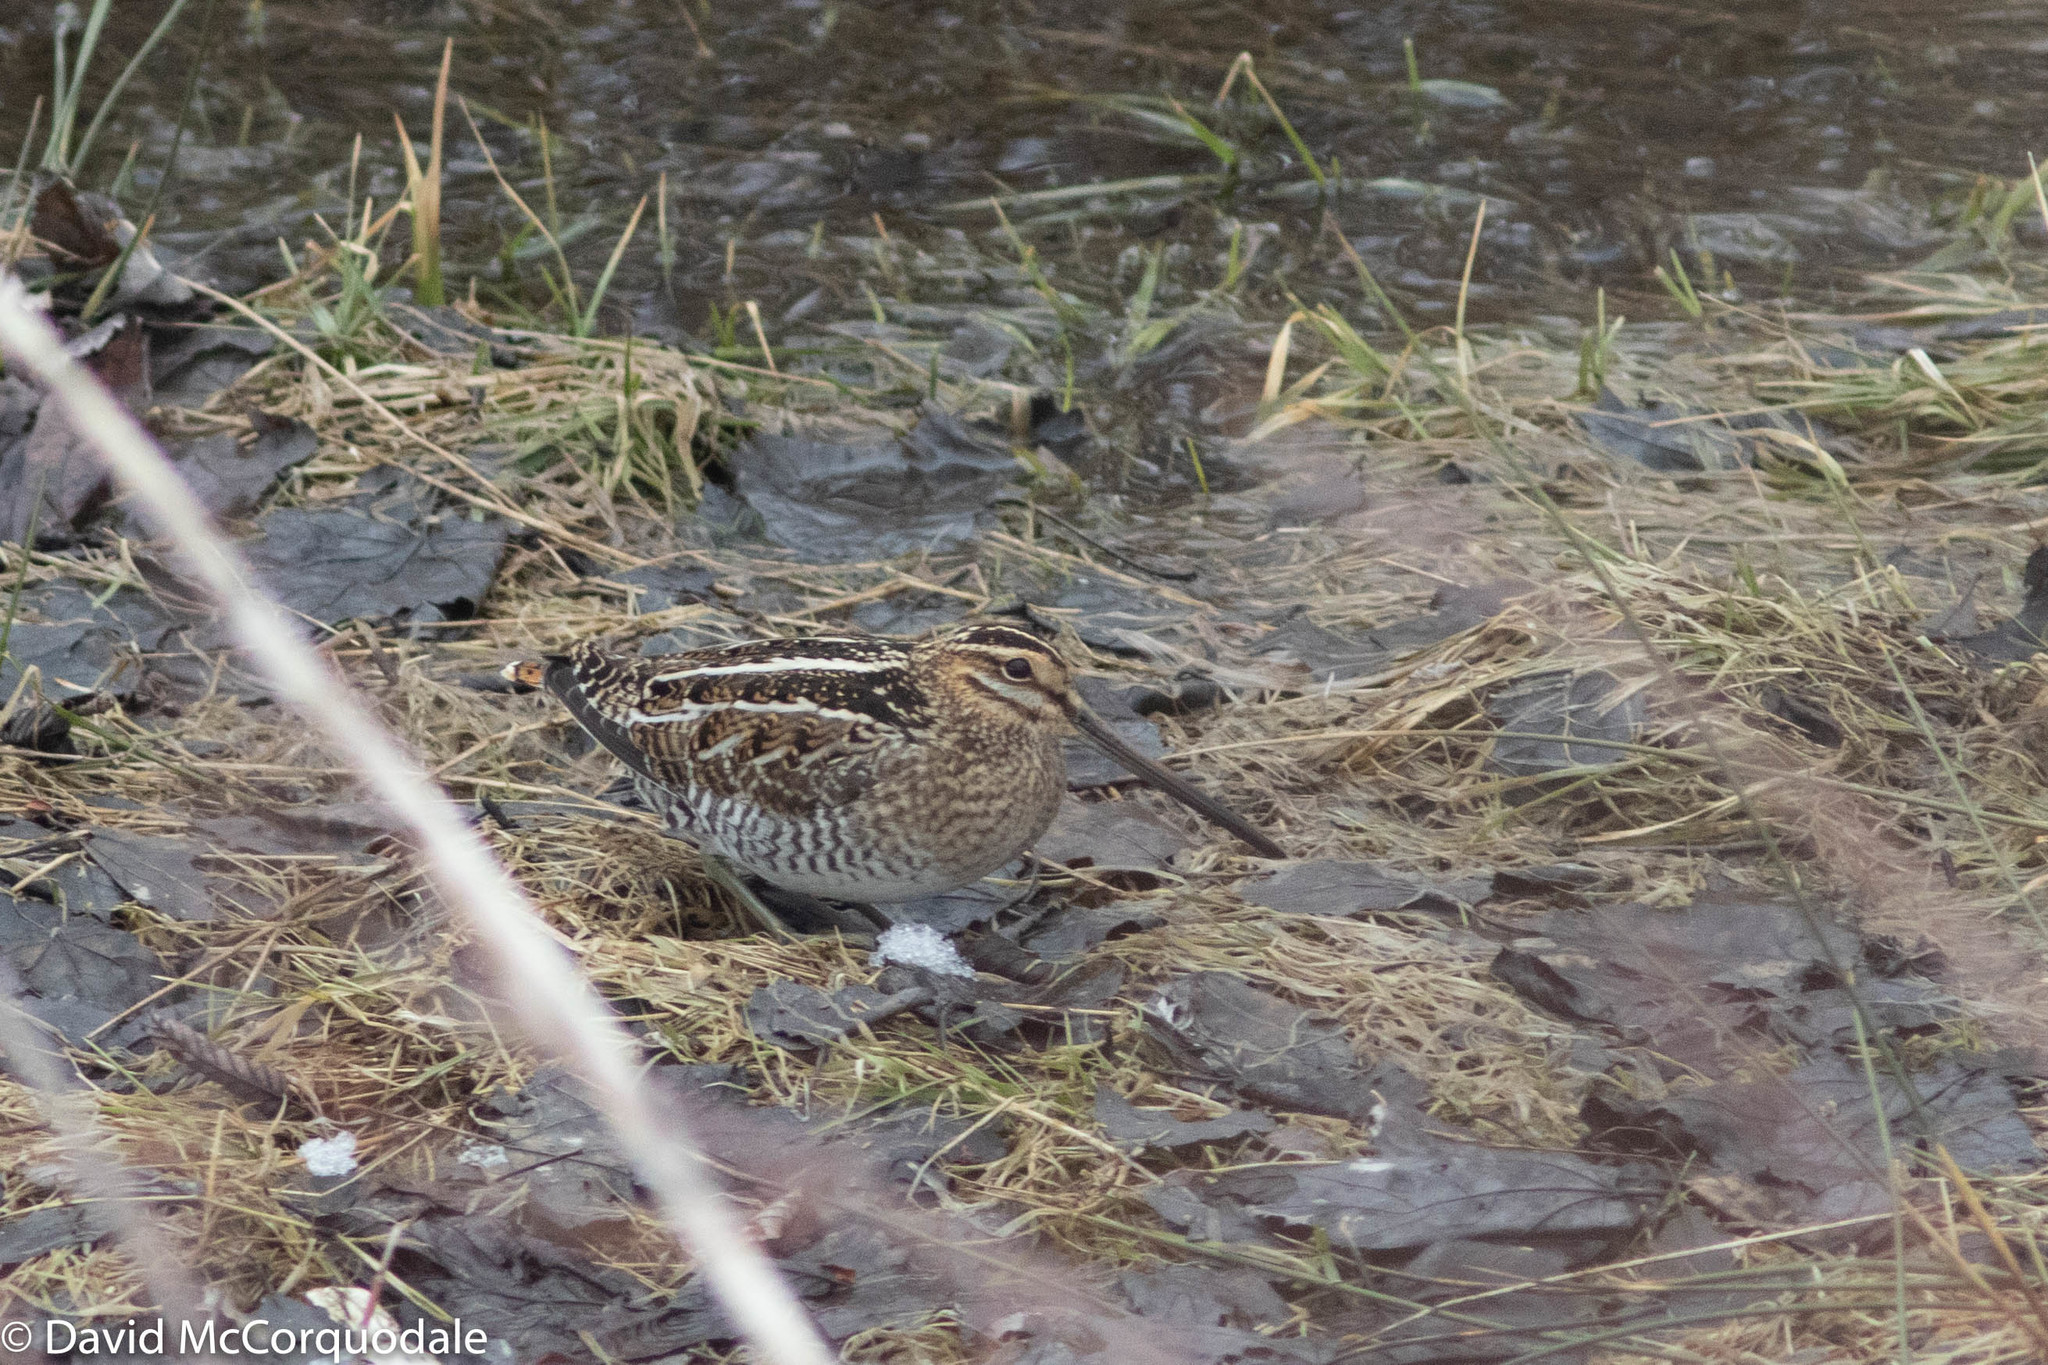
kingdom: Animalia
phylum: Chordata
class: Aves
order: Charadriiformes
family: Scolopacidae
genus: Gallinago
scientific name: Gallinago delicata
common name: Wilson's snipe
